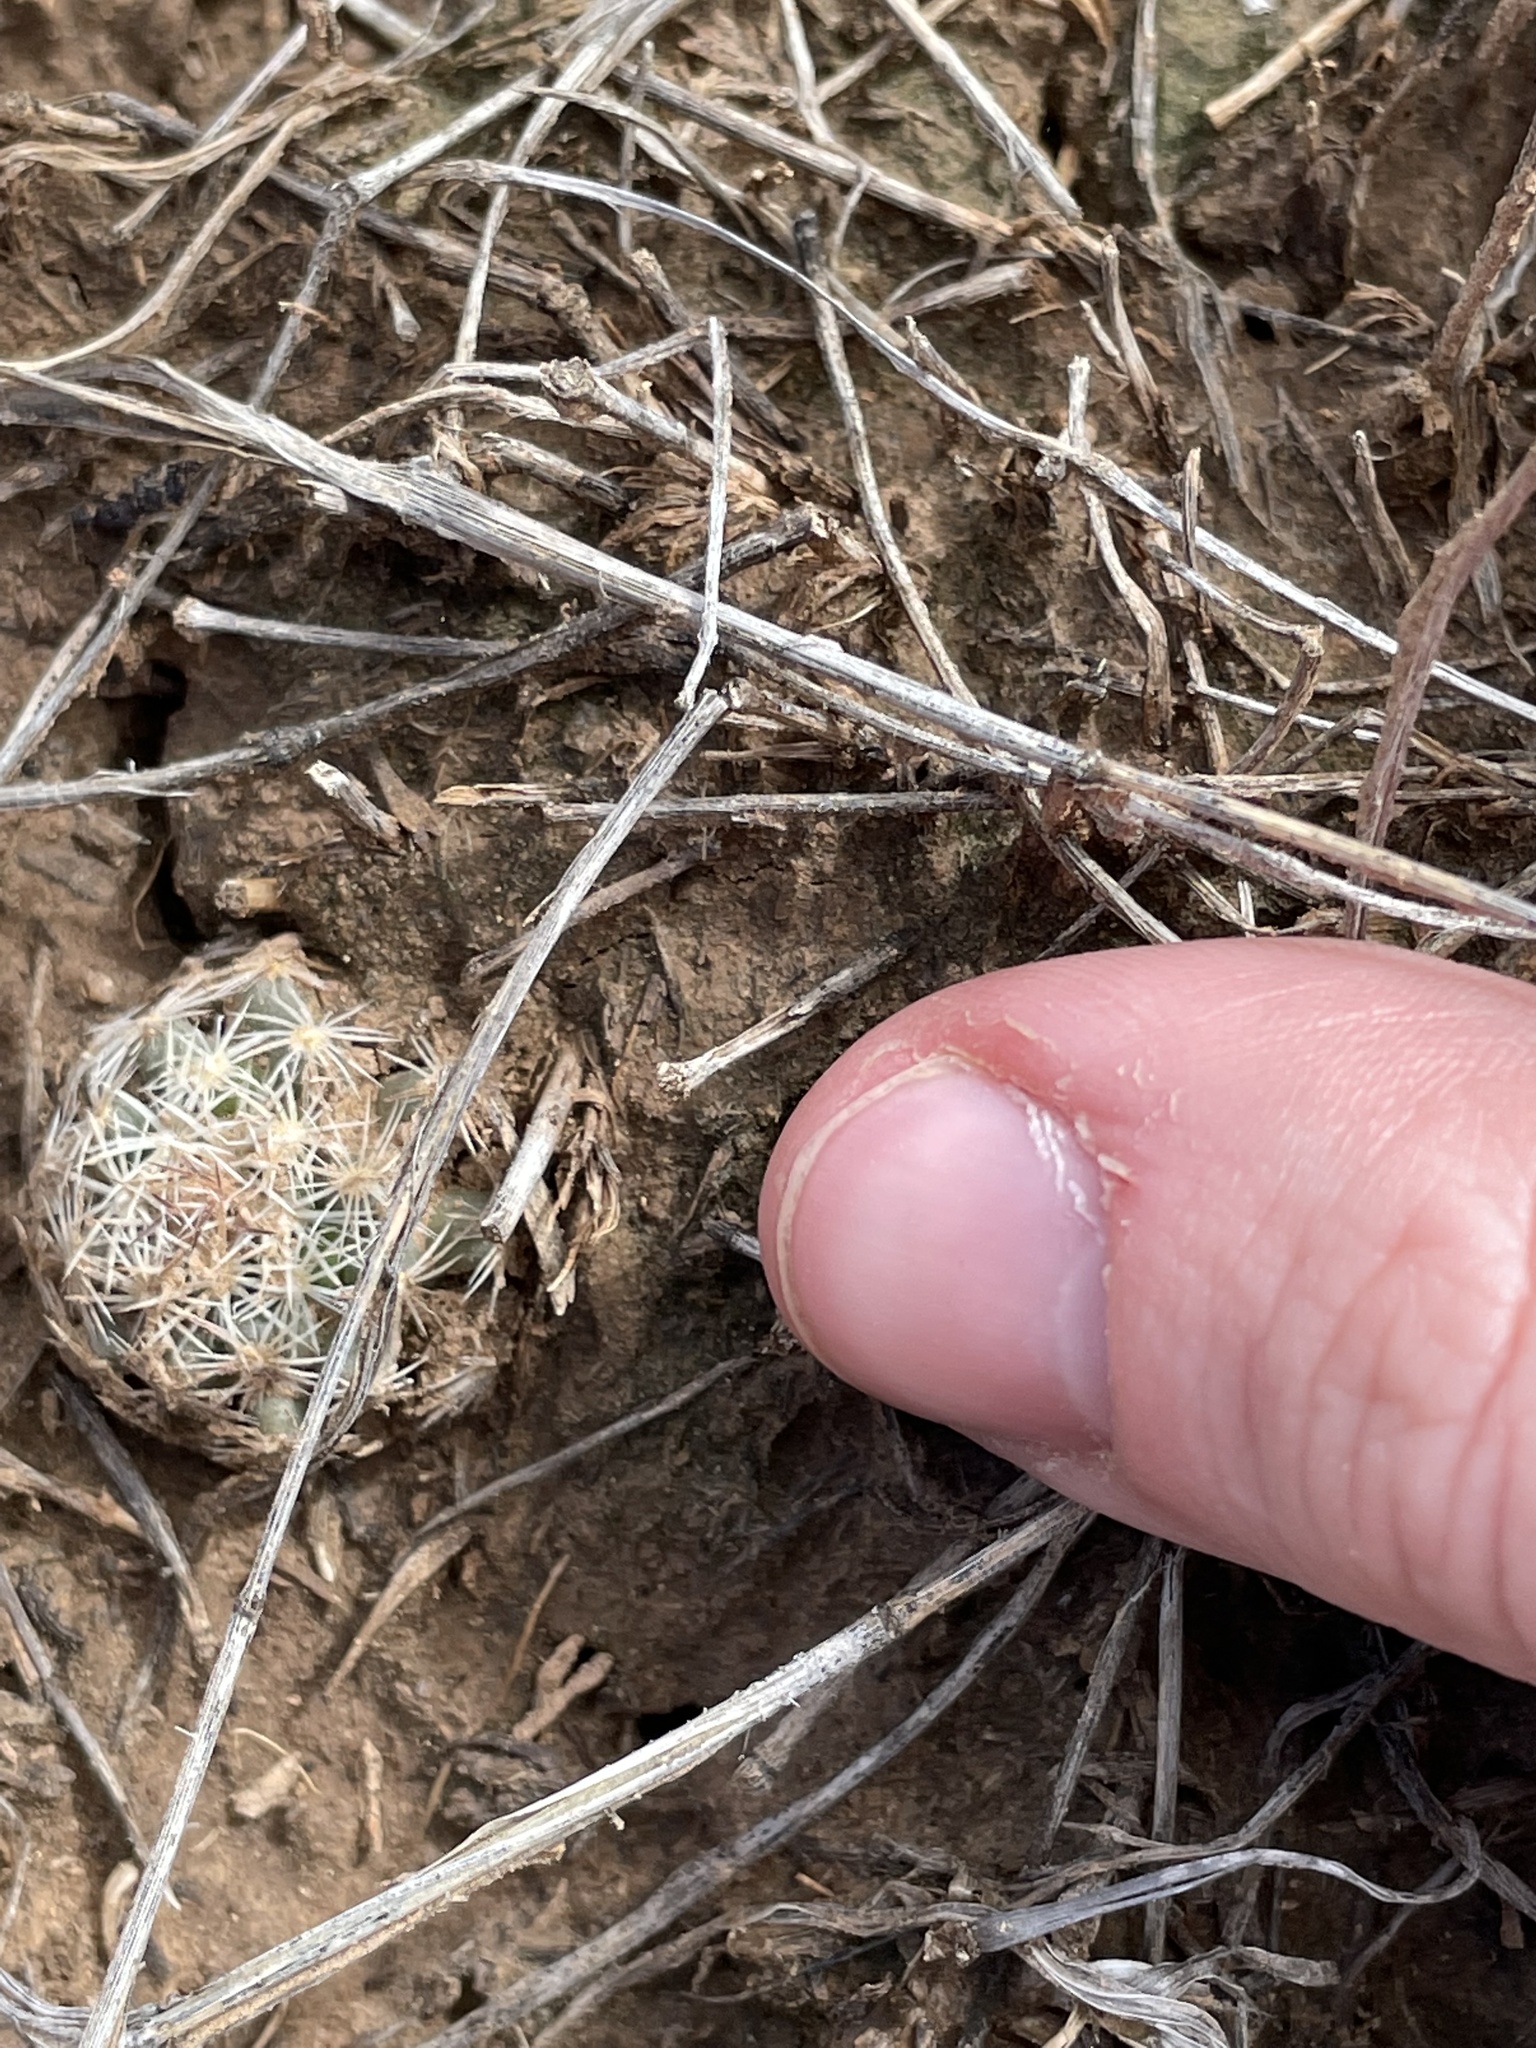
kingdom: Plantae
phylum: Tracheophyta
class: Magnoliopsida
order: Caryophyllales
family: Cactaceae
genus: Pelecyphora
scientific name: Pelecyphora vivipara
